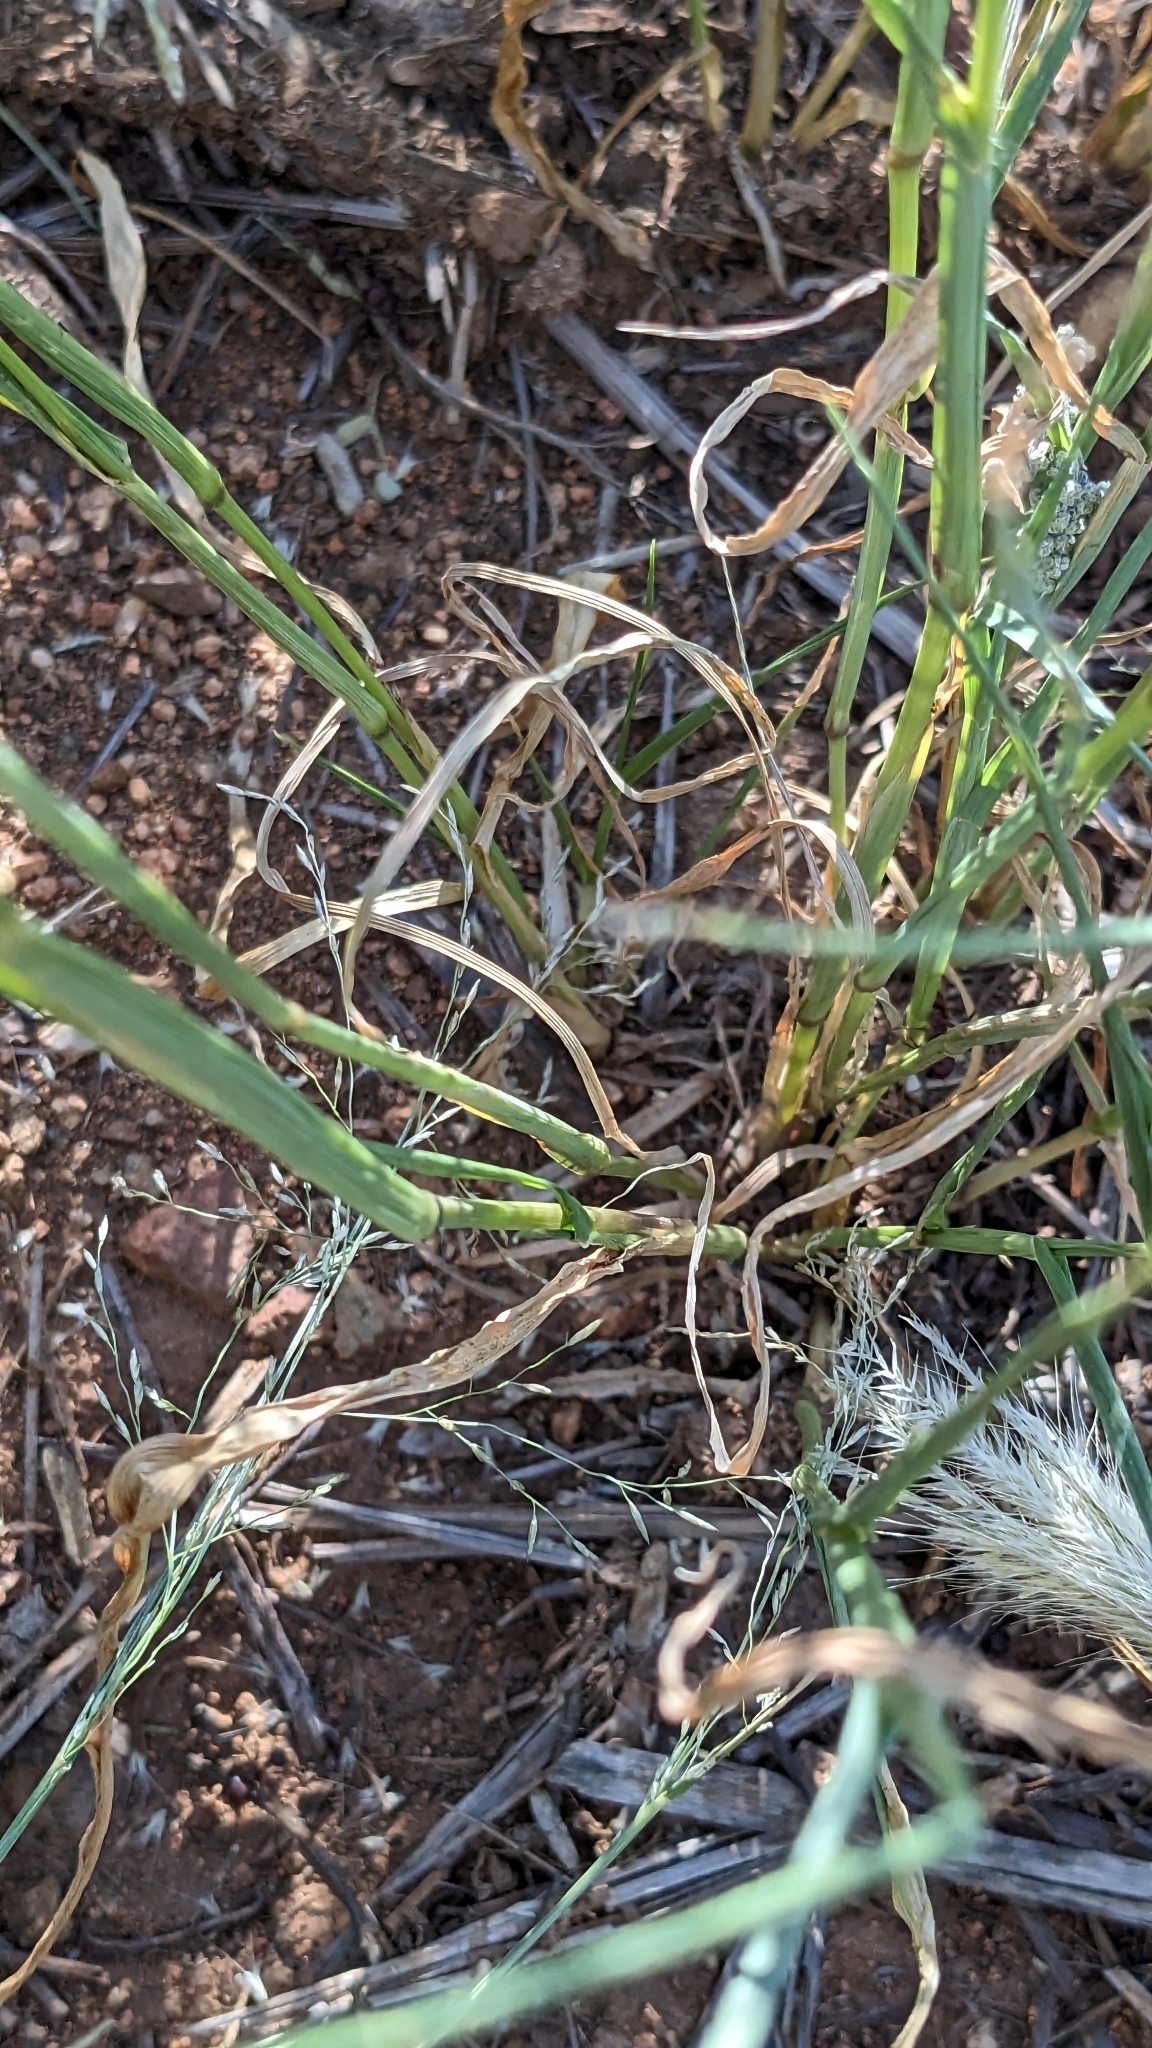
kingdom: Plantae
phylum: Tracheophyta
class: Liliopsida
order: Poales
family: Poaceae
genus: Chloris
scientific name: Chloris virgata
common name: Feathery rhodes-grass
